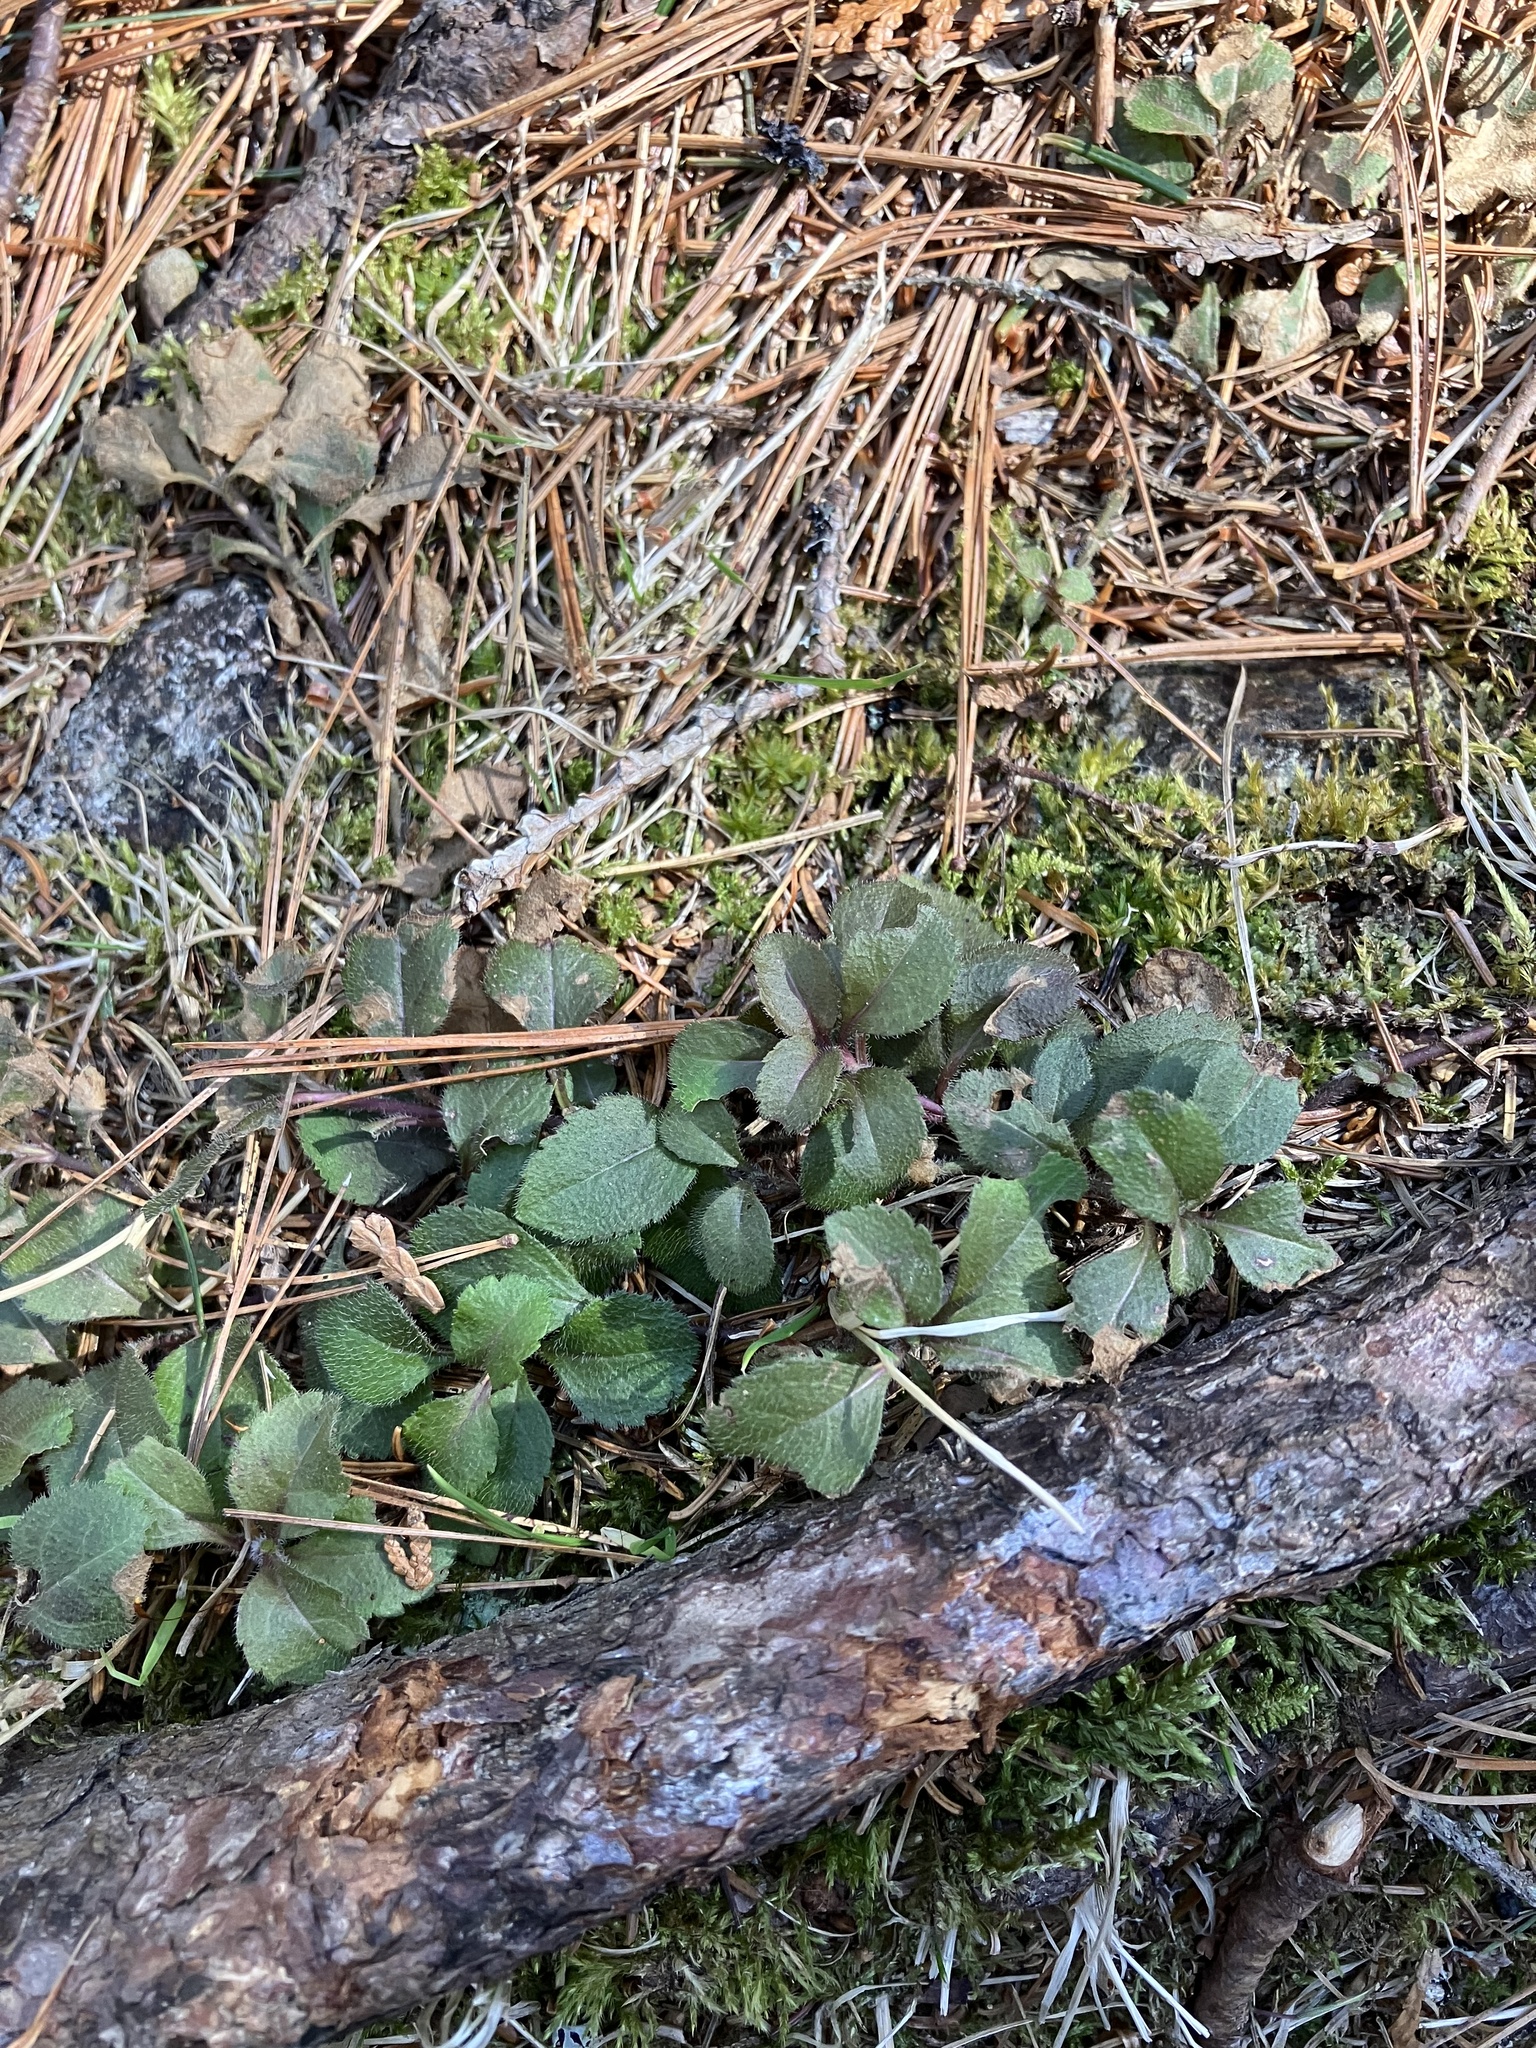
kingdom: Plantae
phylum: Tracheophyta
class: Magnoliopsida
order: Lamiales
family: Plantaginaceae
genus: Veronica
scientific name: Veronica officinalis
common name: Common speedwell
